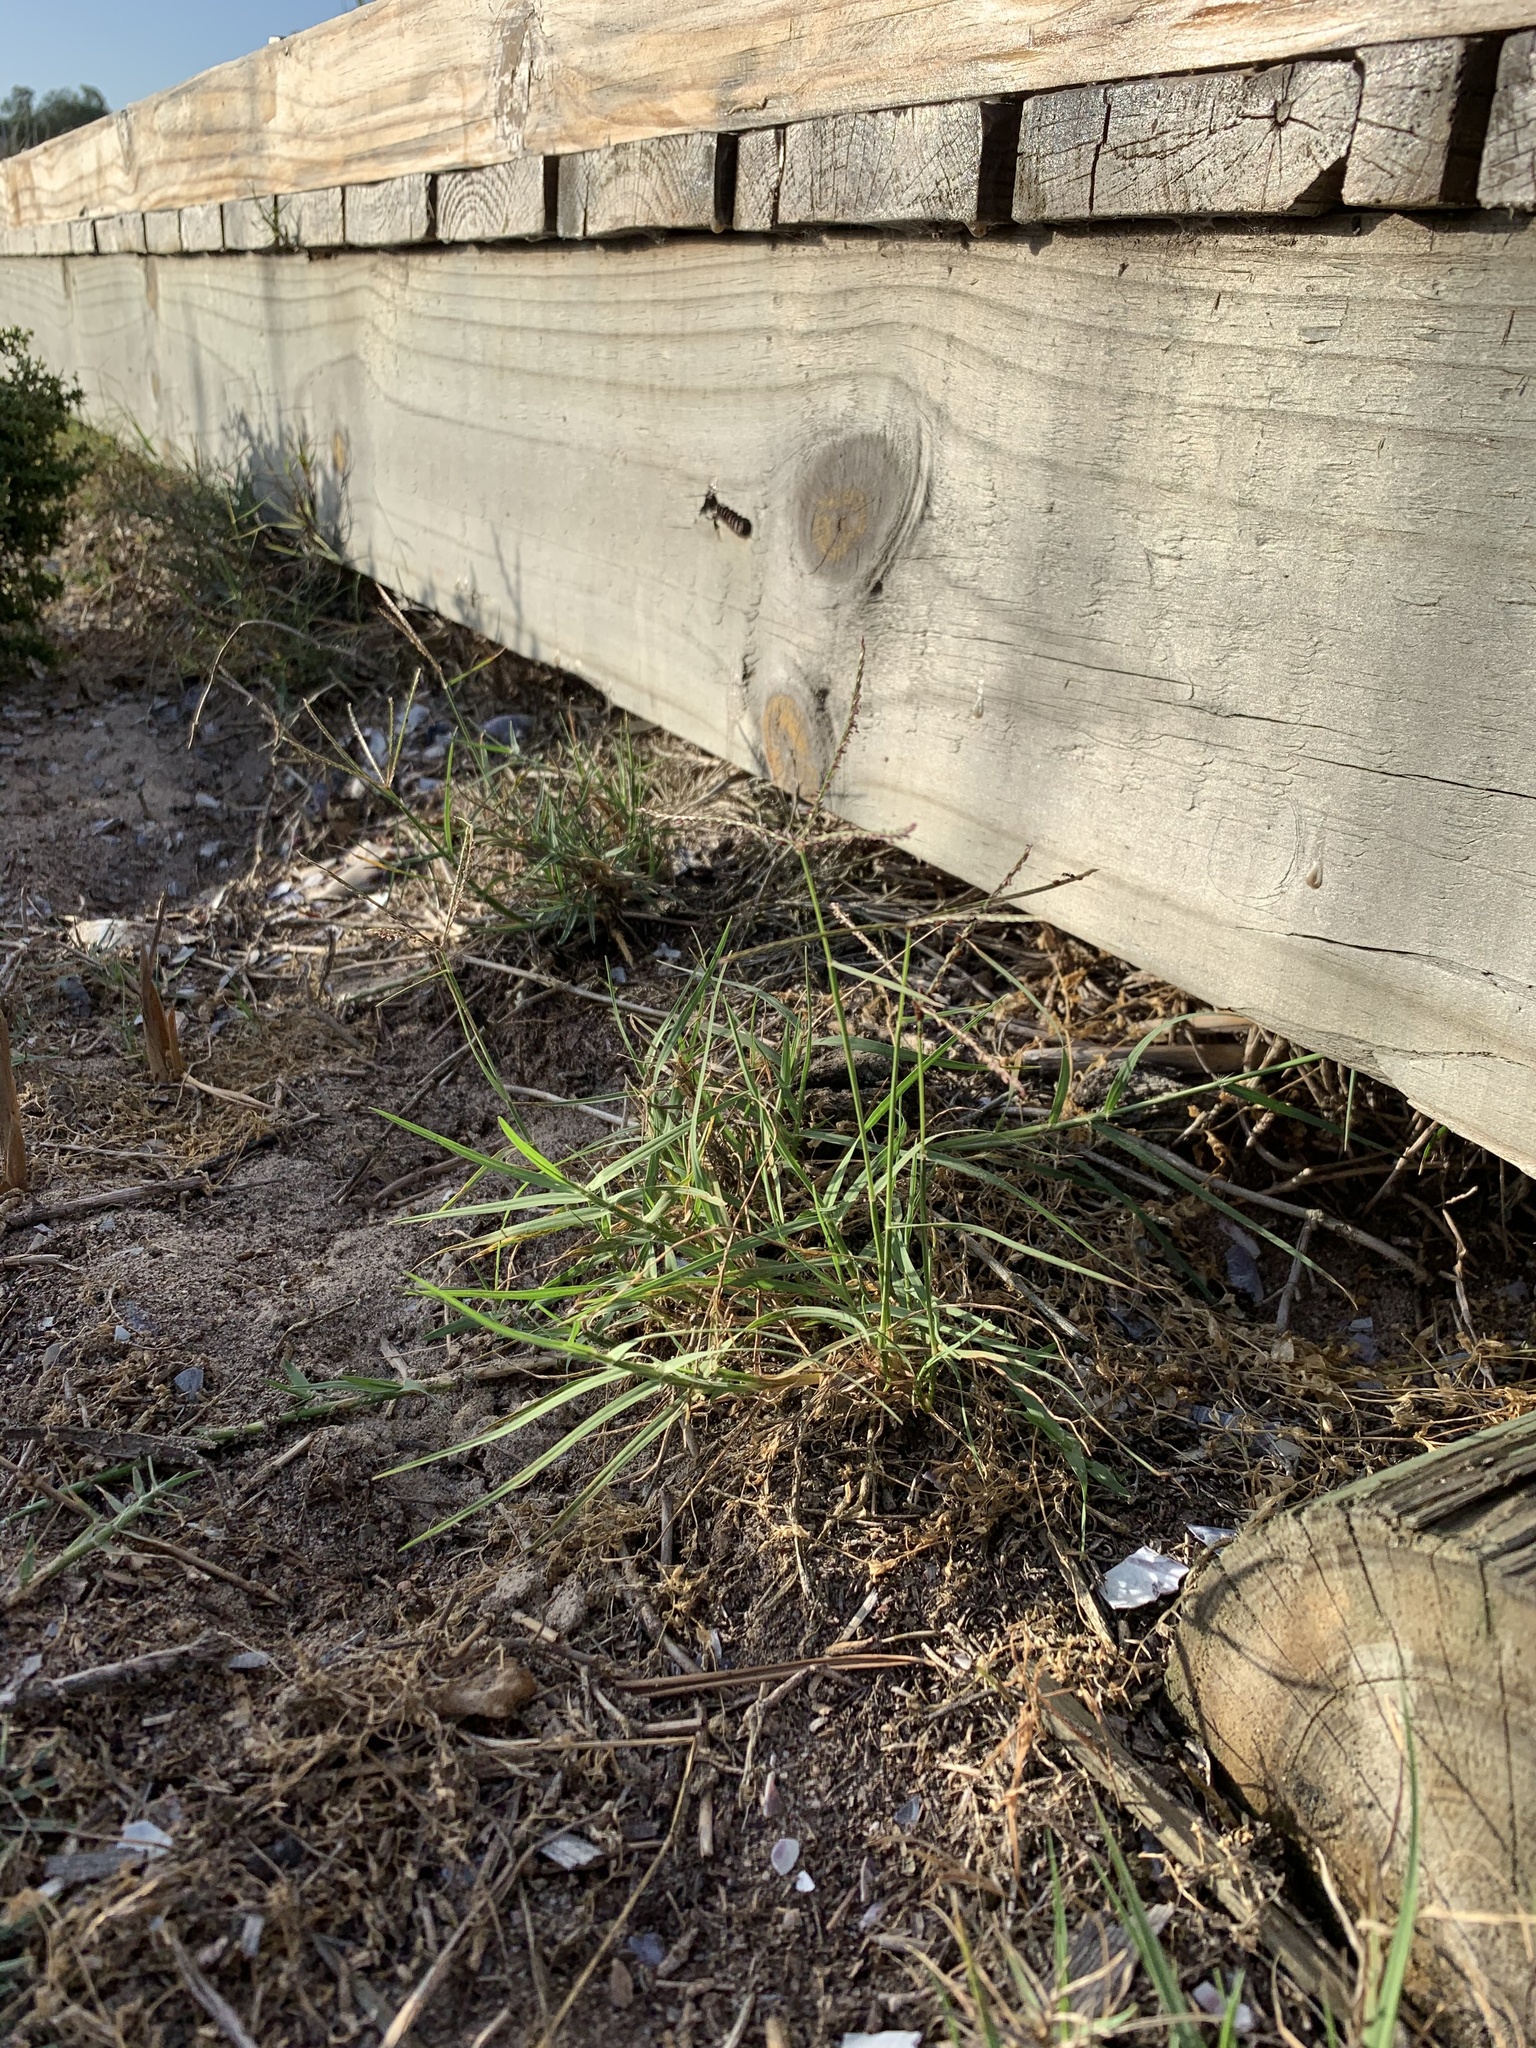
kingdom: Plantae
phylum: Tracheophyta
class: Liliopsida
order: Poales
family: Poaceae
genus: Cynodon
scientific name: Cynodon dactylon
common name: Bermuda grass
